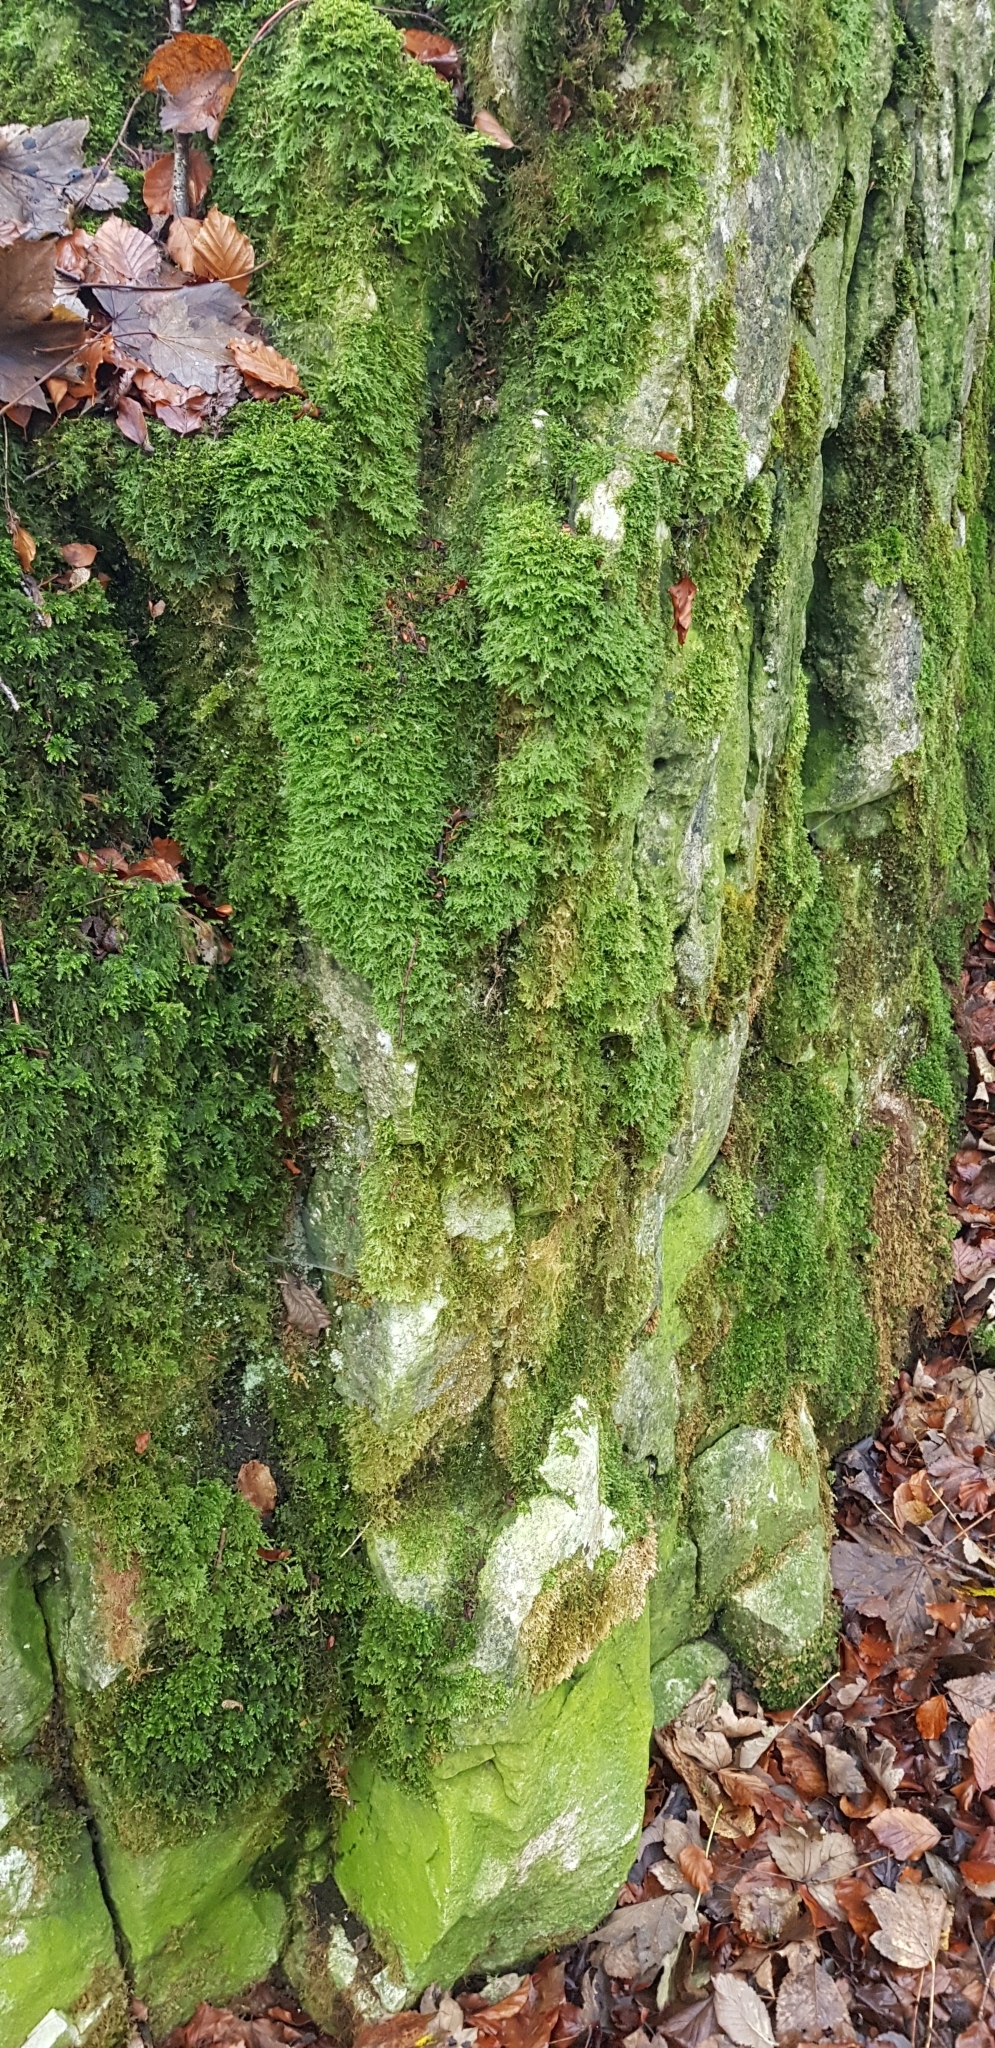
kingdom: Plantae
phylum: Bryophyta
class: Bryopsida
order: Hypnales
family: Neckeraceae
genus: Exsertotheca
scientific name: Exsertotheca crispa
